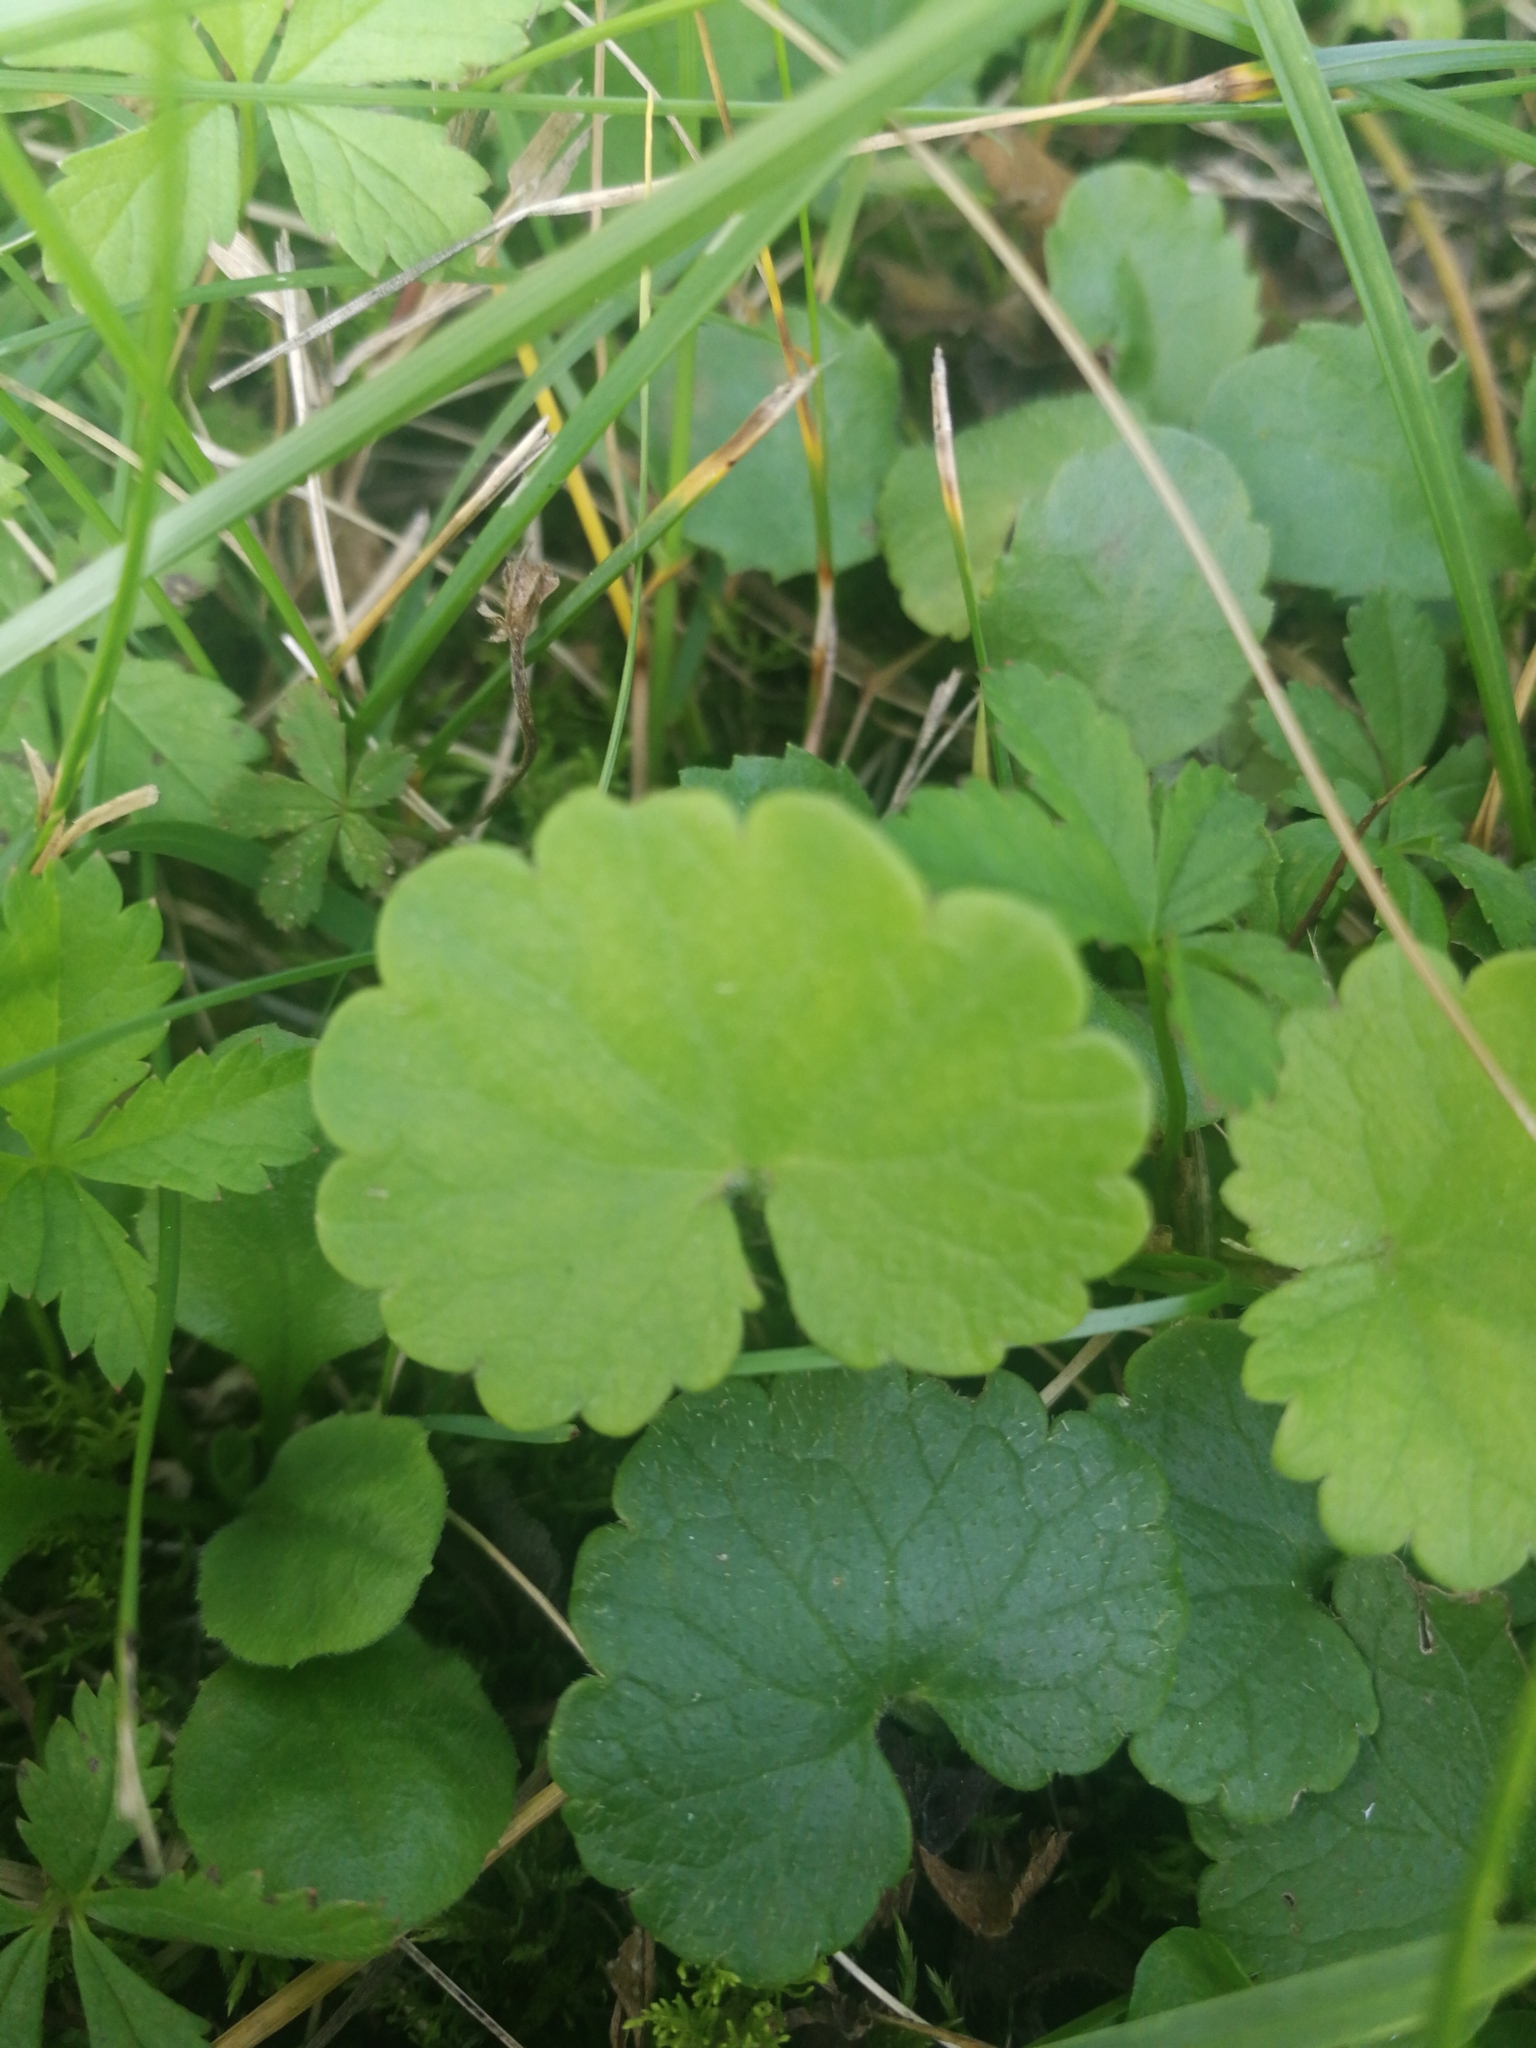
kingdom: Plantae
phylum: Tracheophyta
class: Magnoliopsida
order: Lamiales
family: Lamiaceae
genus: Glechoma
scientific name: Glechoma hederacea
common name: Ground ivy
